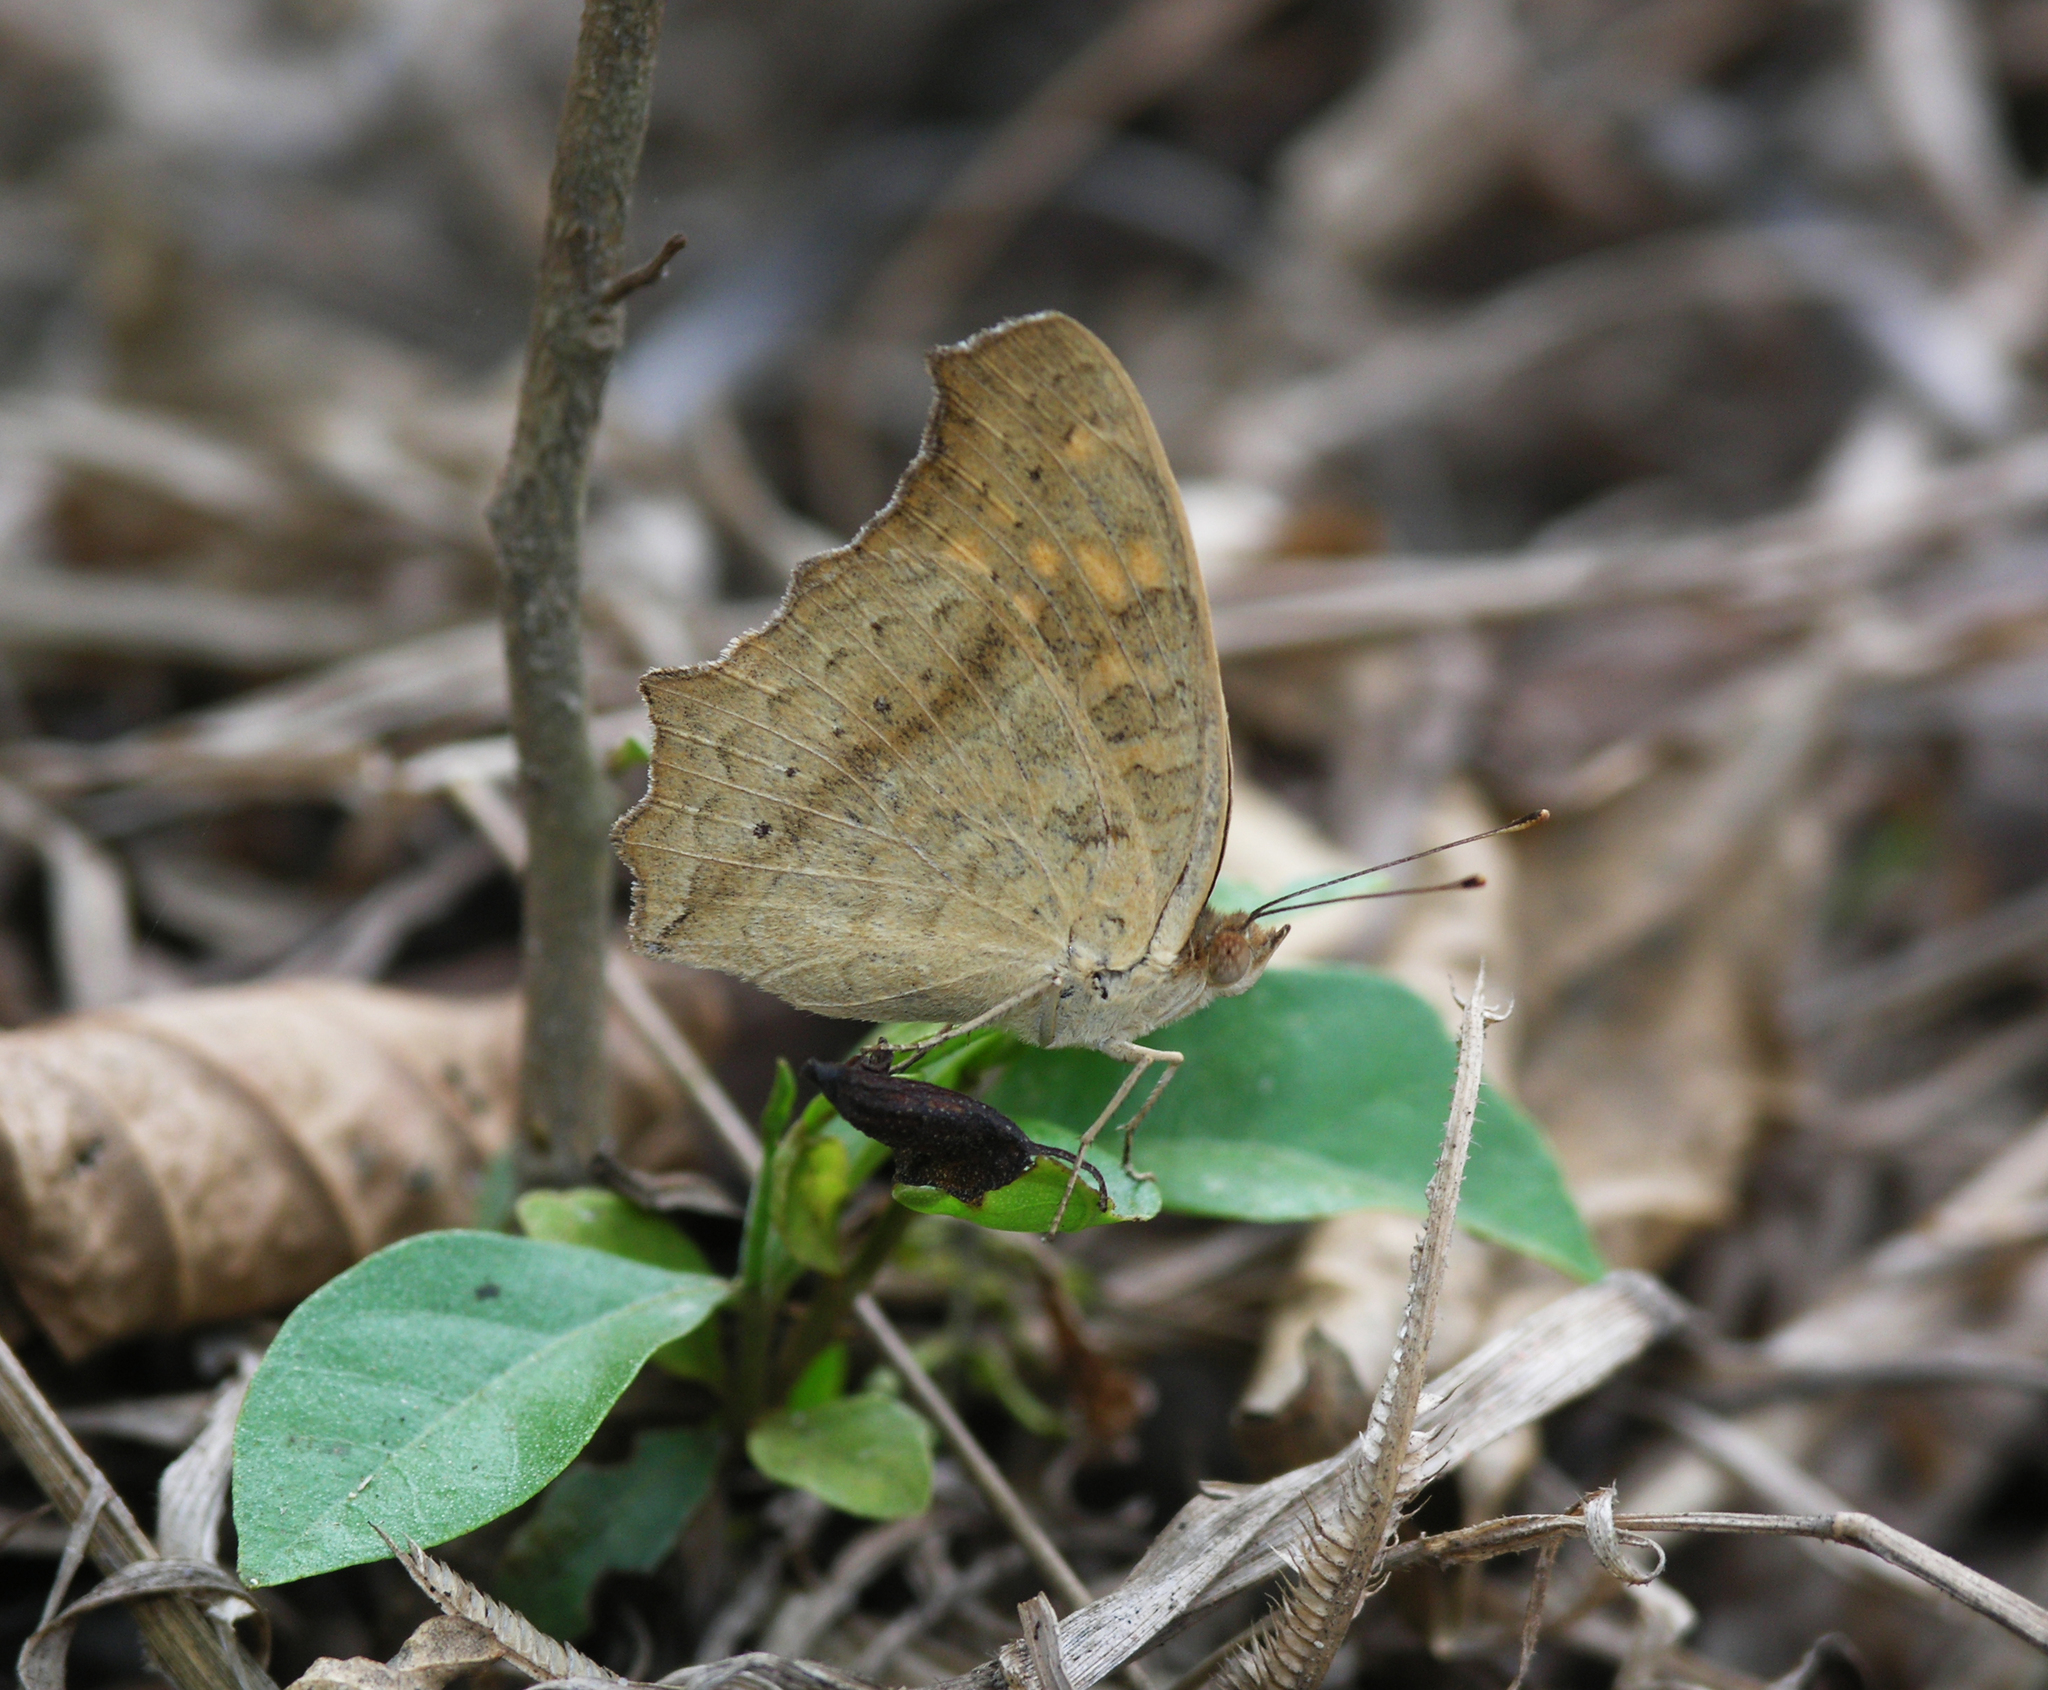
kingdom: Animalia
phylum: Arthropoda
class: Insecta
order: Lepidoptera
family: Nymphalidae
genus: Junonia
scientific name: Junonia lemonias
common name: Lemon pansy
